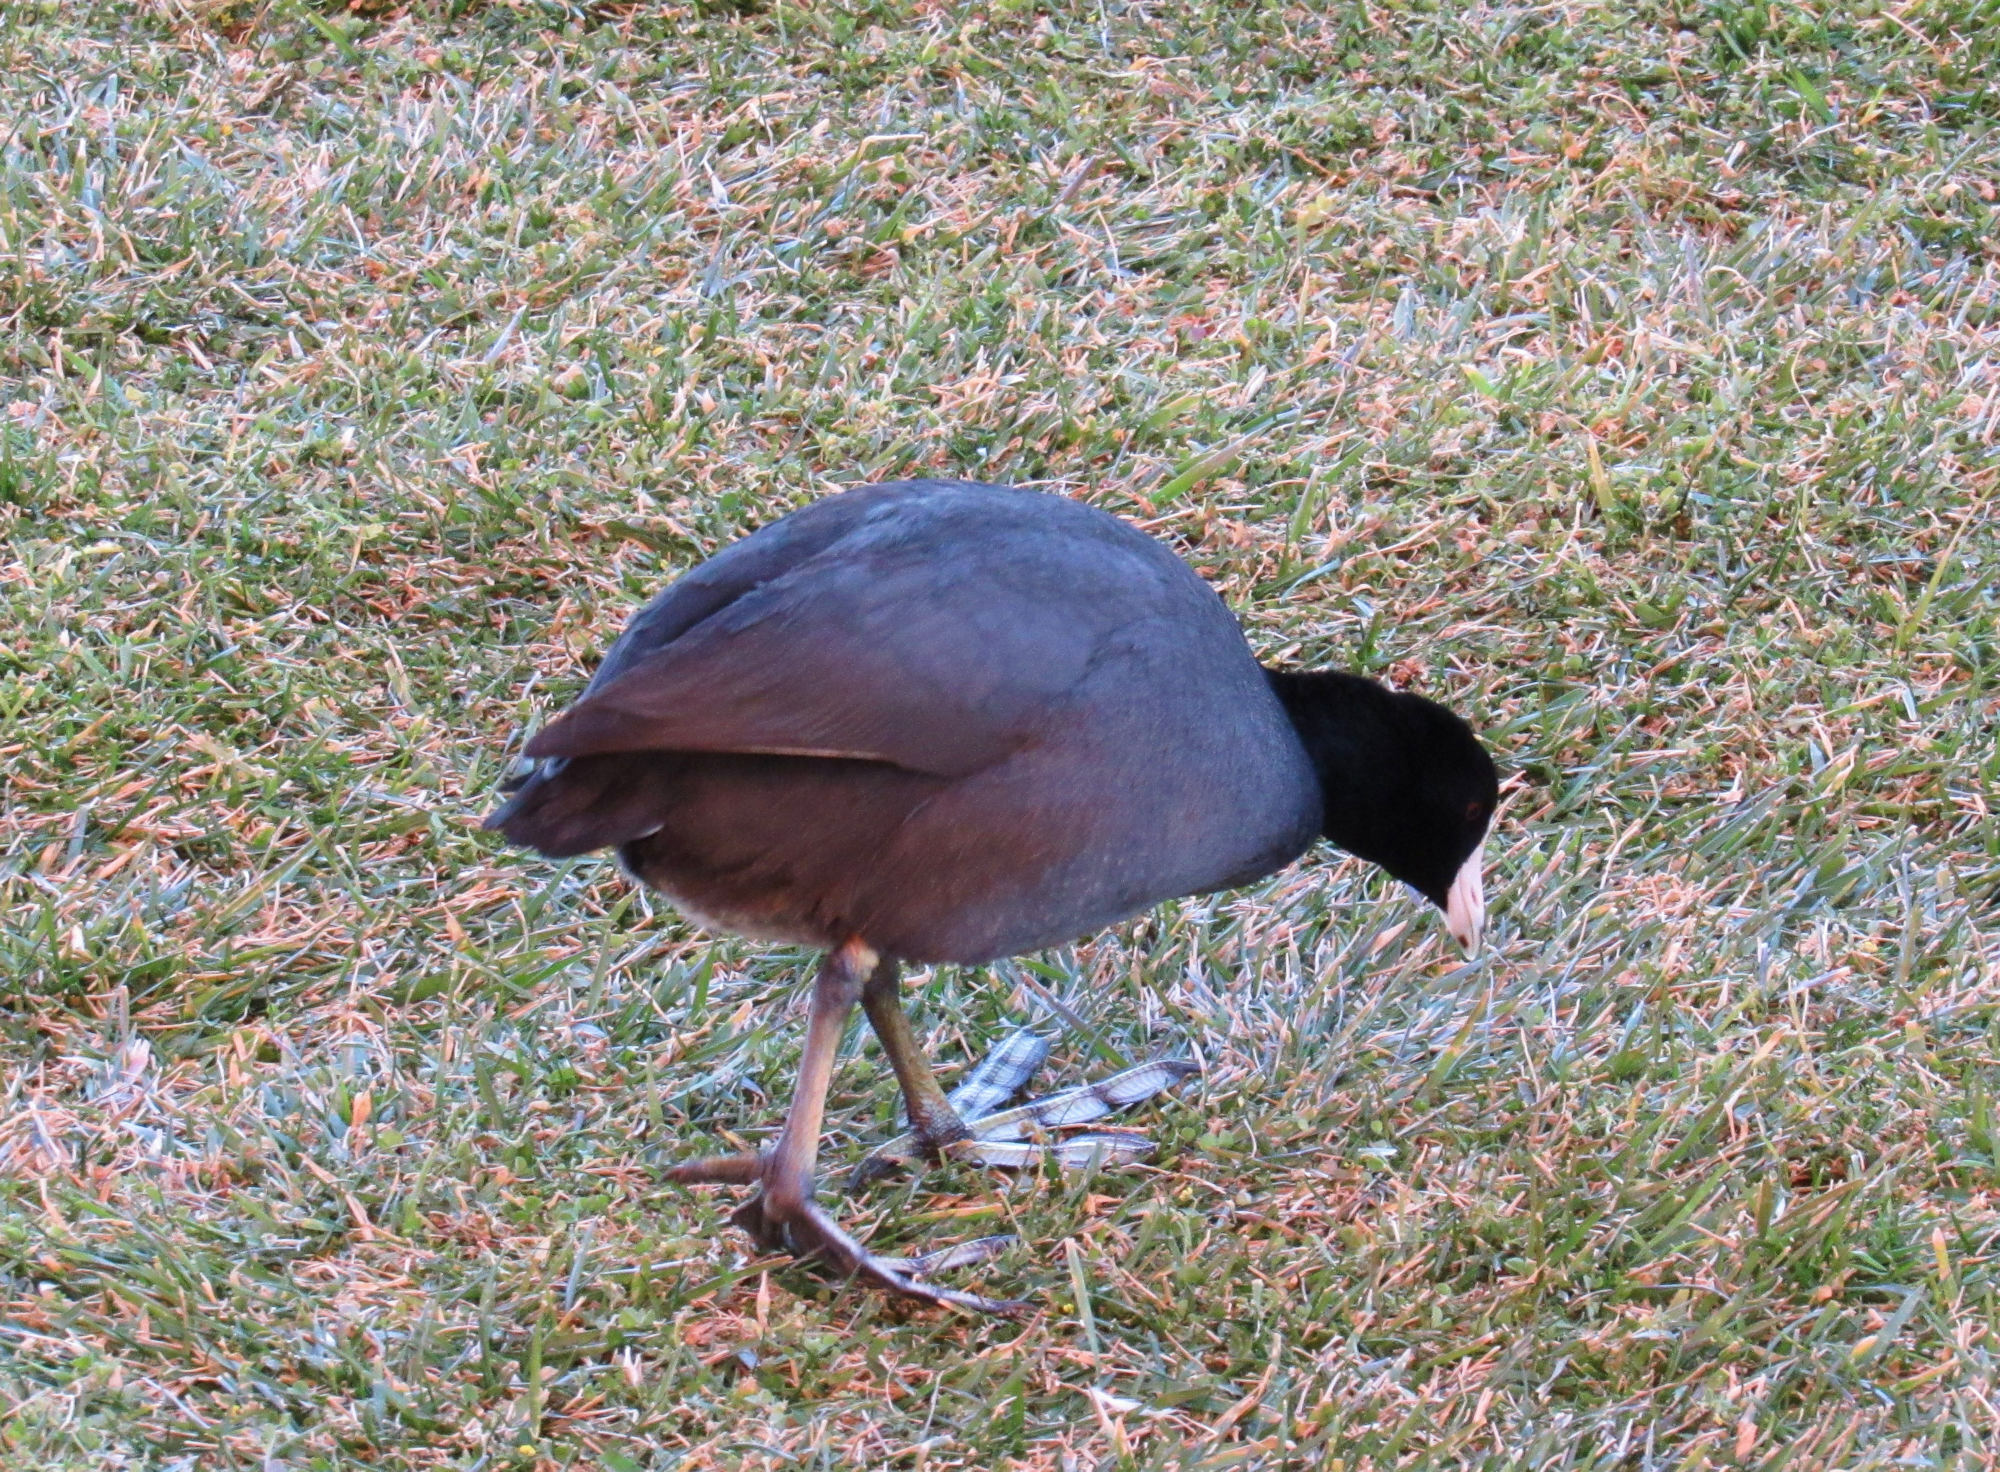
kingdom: Animalia
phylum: Chordata
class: Aves
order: Gruiformes
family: Rallidae
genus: Fulica
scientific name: Fulica americana
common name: American coot
